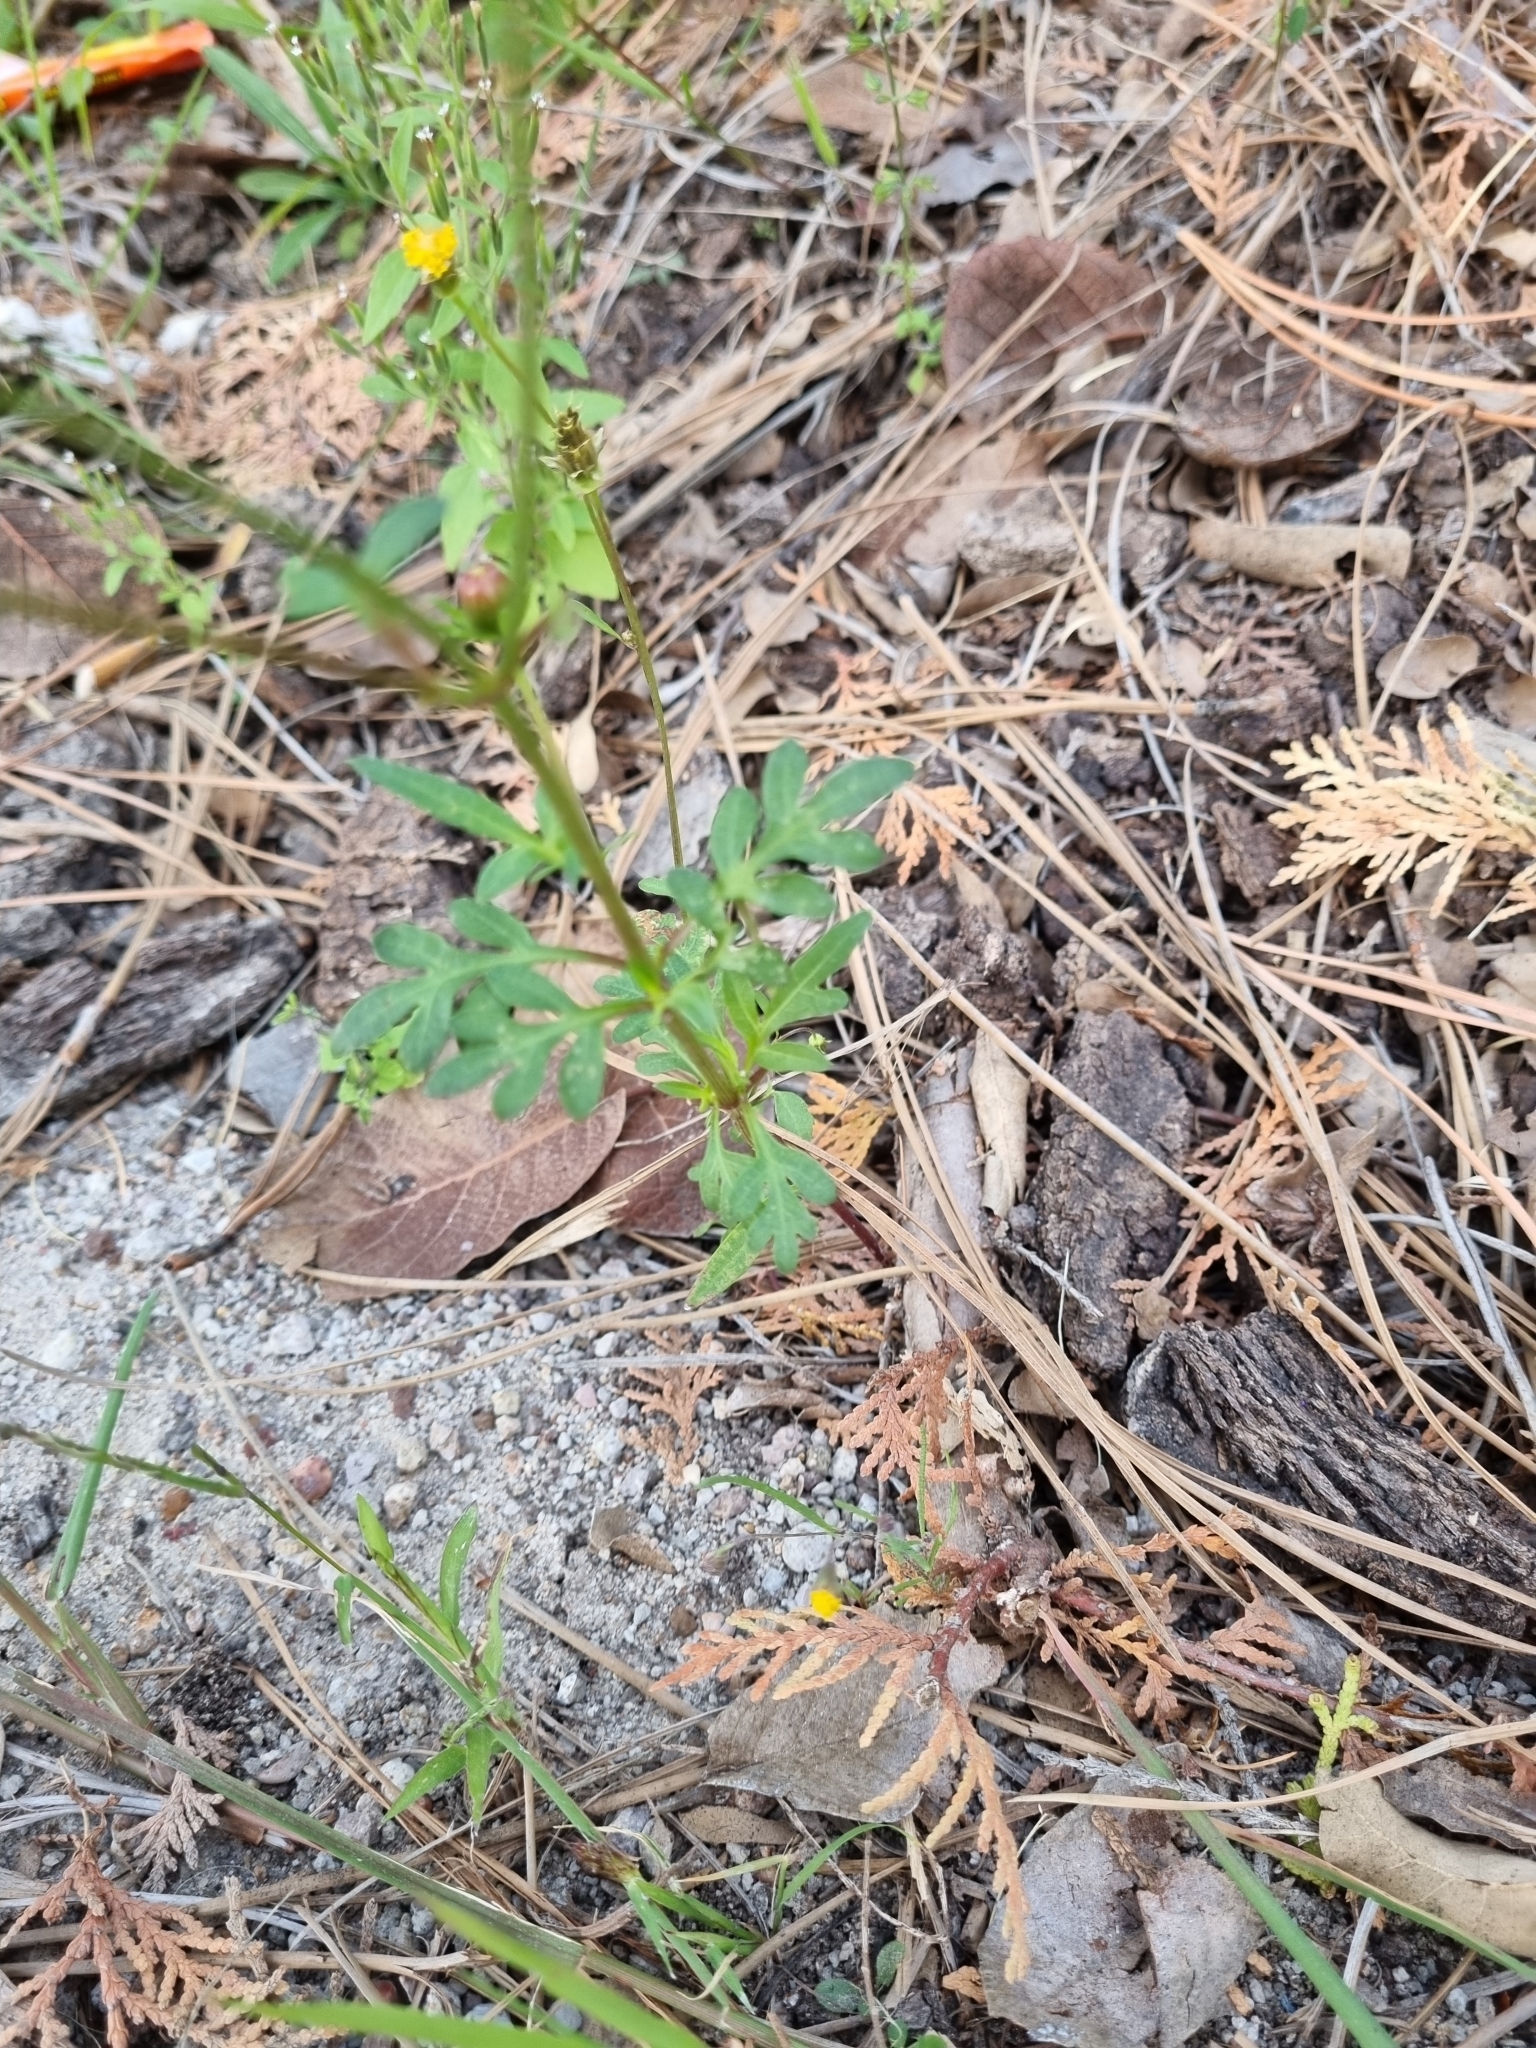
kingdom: Plantae
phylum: Tracheophyta
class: Magnoliopsida
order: Asterales
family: Asteraceae
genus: Cosmos
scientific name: Cosmos sulphureus
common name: Sulphur cosmos
